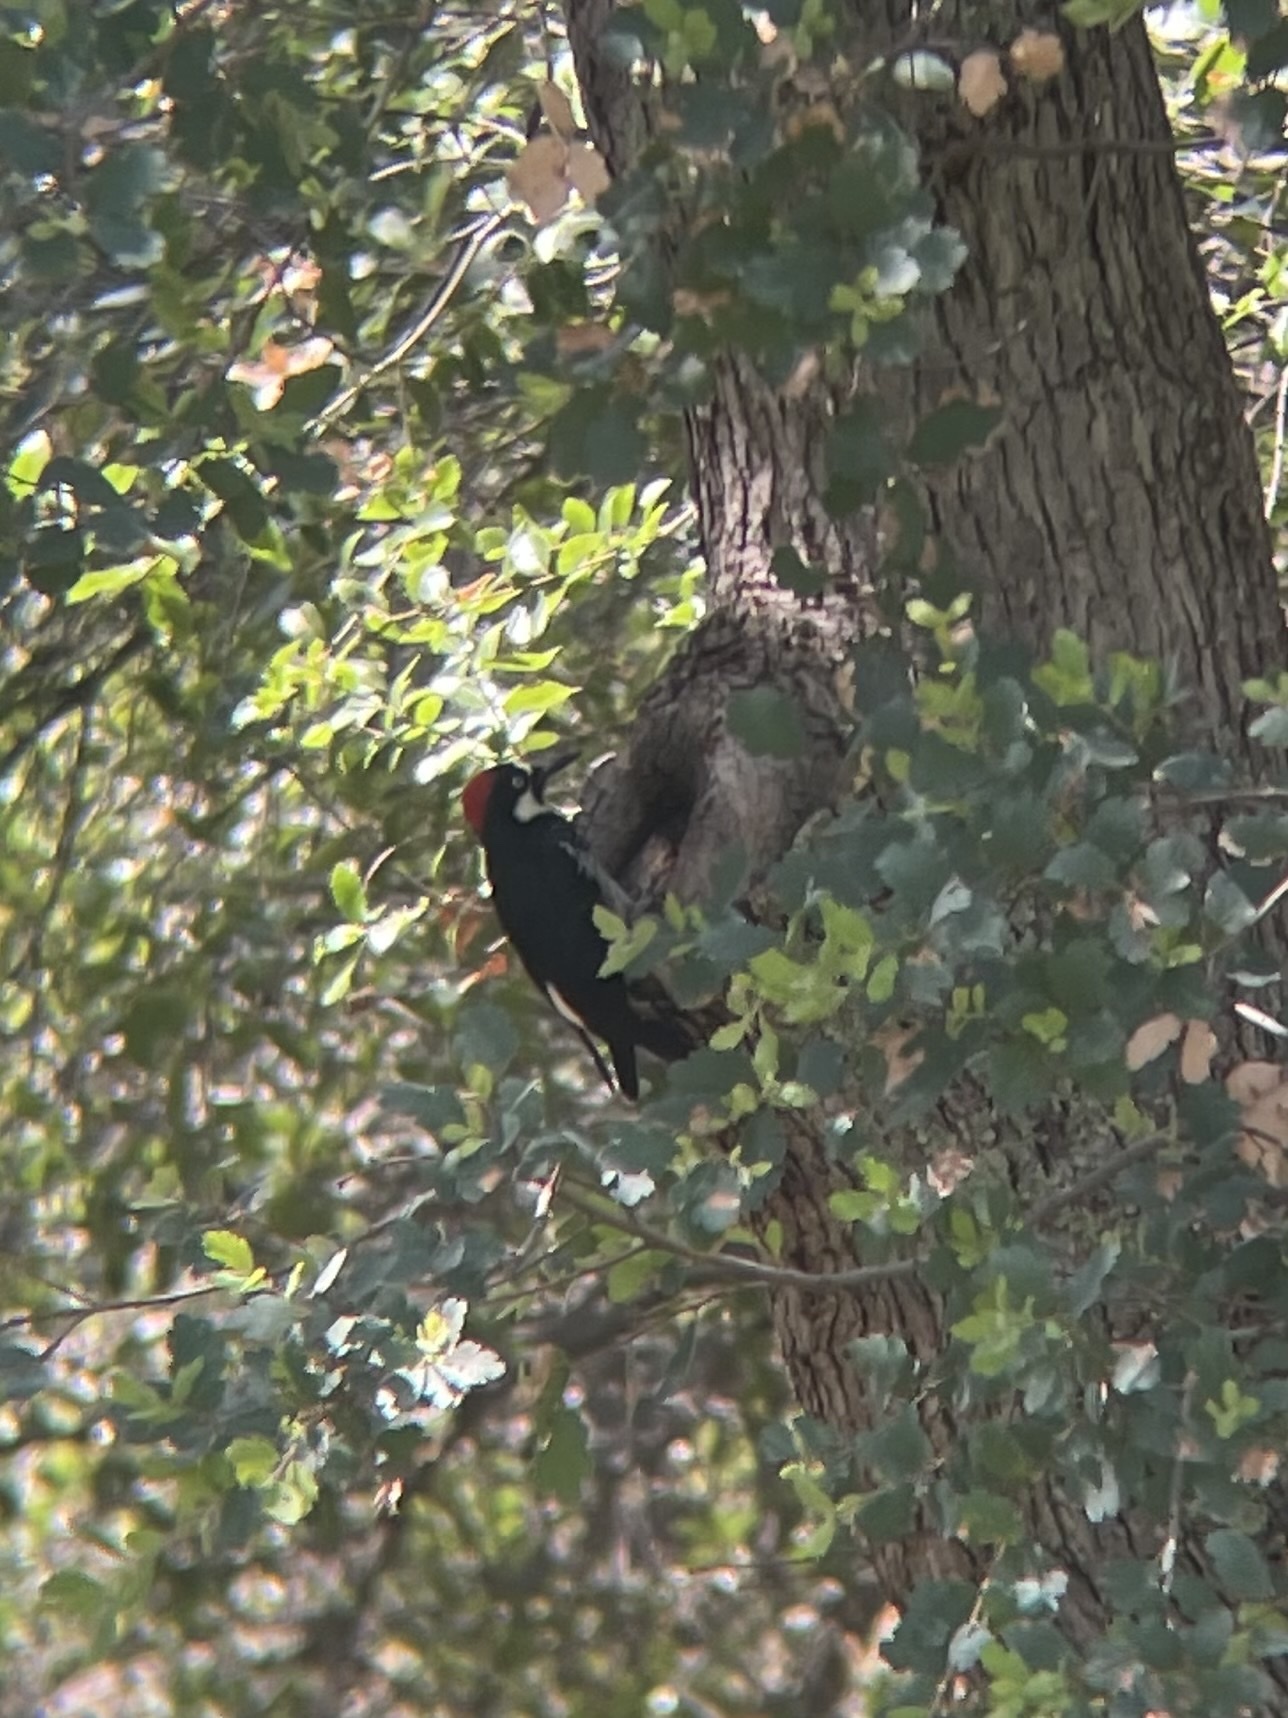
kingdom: Animalia
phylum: Chordata
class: Aves
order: Piciformes
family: Picidae
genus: Melanerpes
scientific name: Melanerpes formicivorus
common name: Acorn woodpecker
